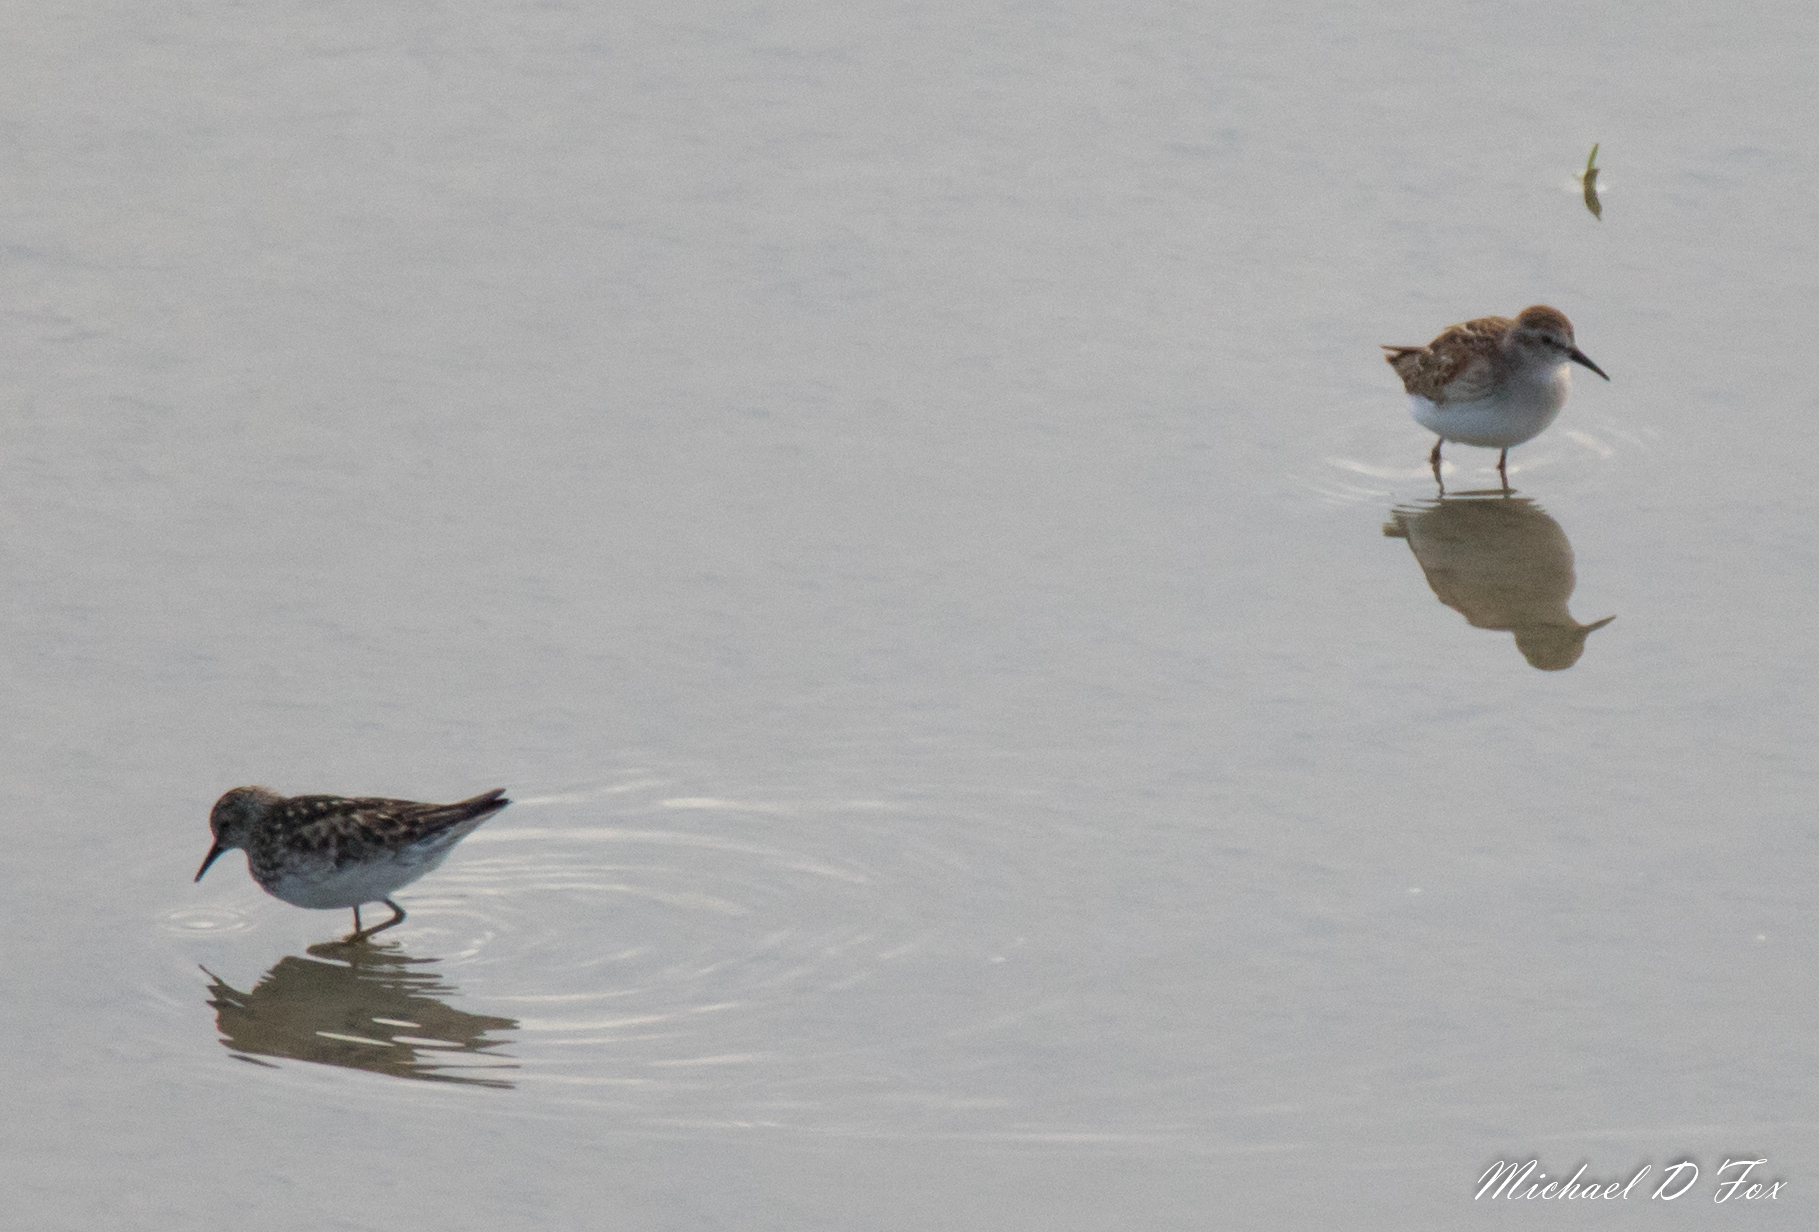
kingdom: Animalia
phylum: Chordata
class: Aves
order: Charadriiformes
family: Scolopacidae
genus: Calidris
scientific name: Calidris minutilla
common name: Least sandpiper
